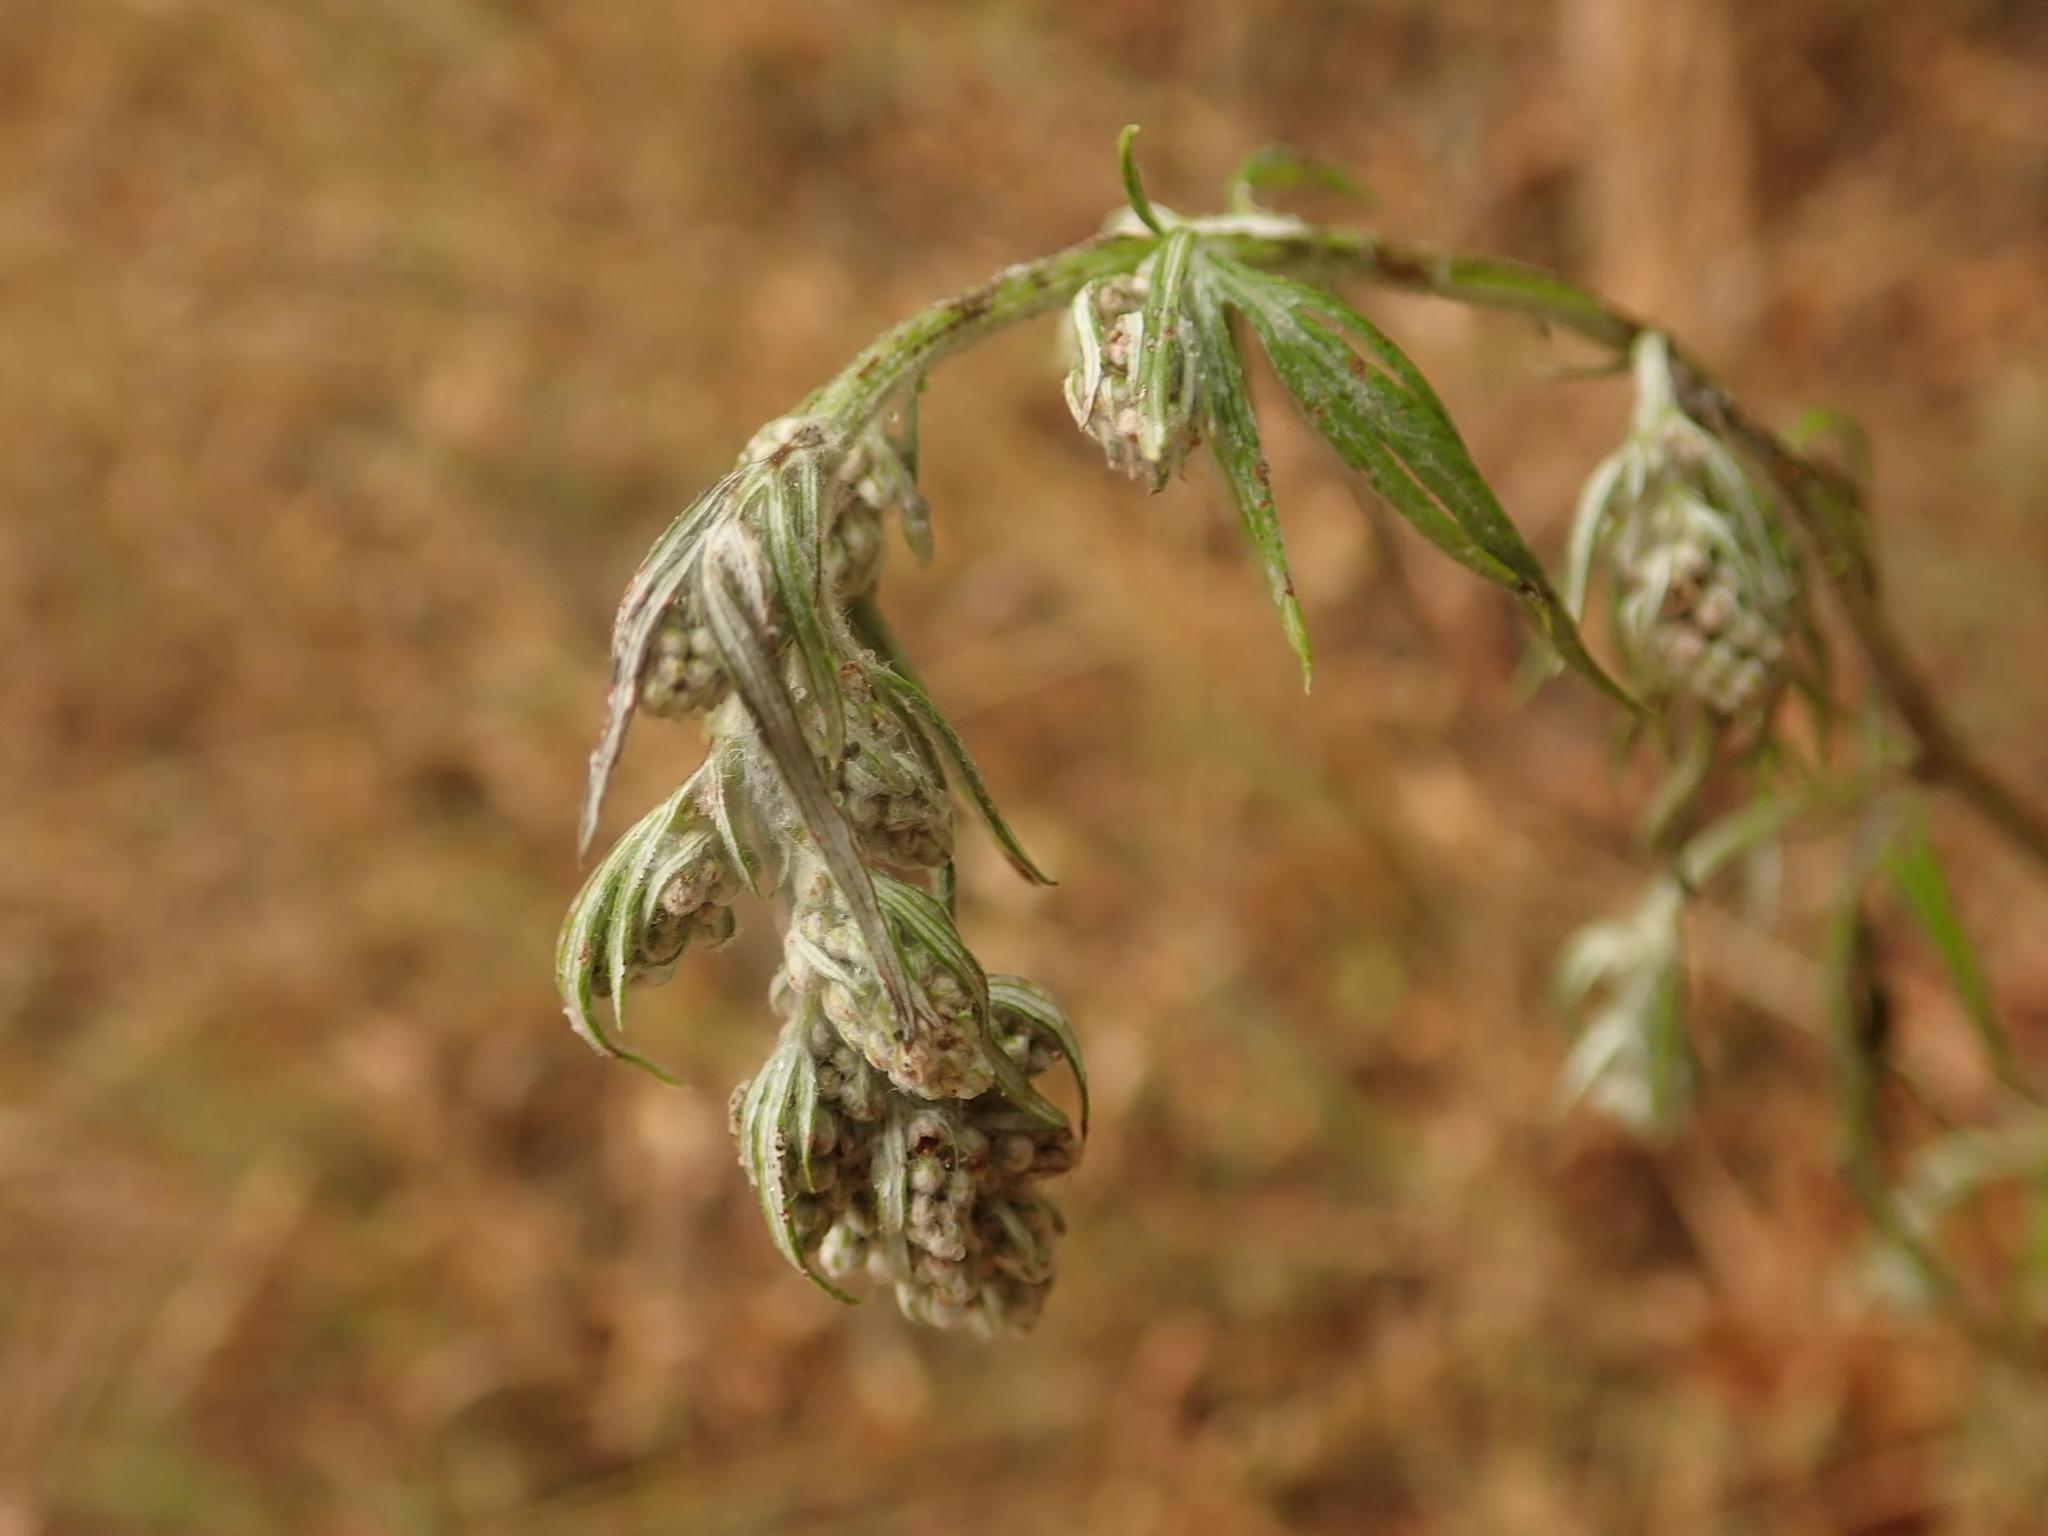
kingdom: Plantae
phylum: Tracheophyta
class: Magnoliopsida
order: Asterales
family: Asteraceae
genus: Artemisia
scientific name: Artemisia vulgaris
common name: Mugwort
